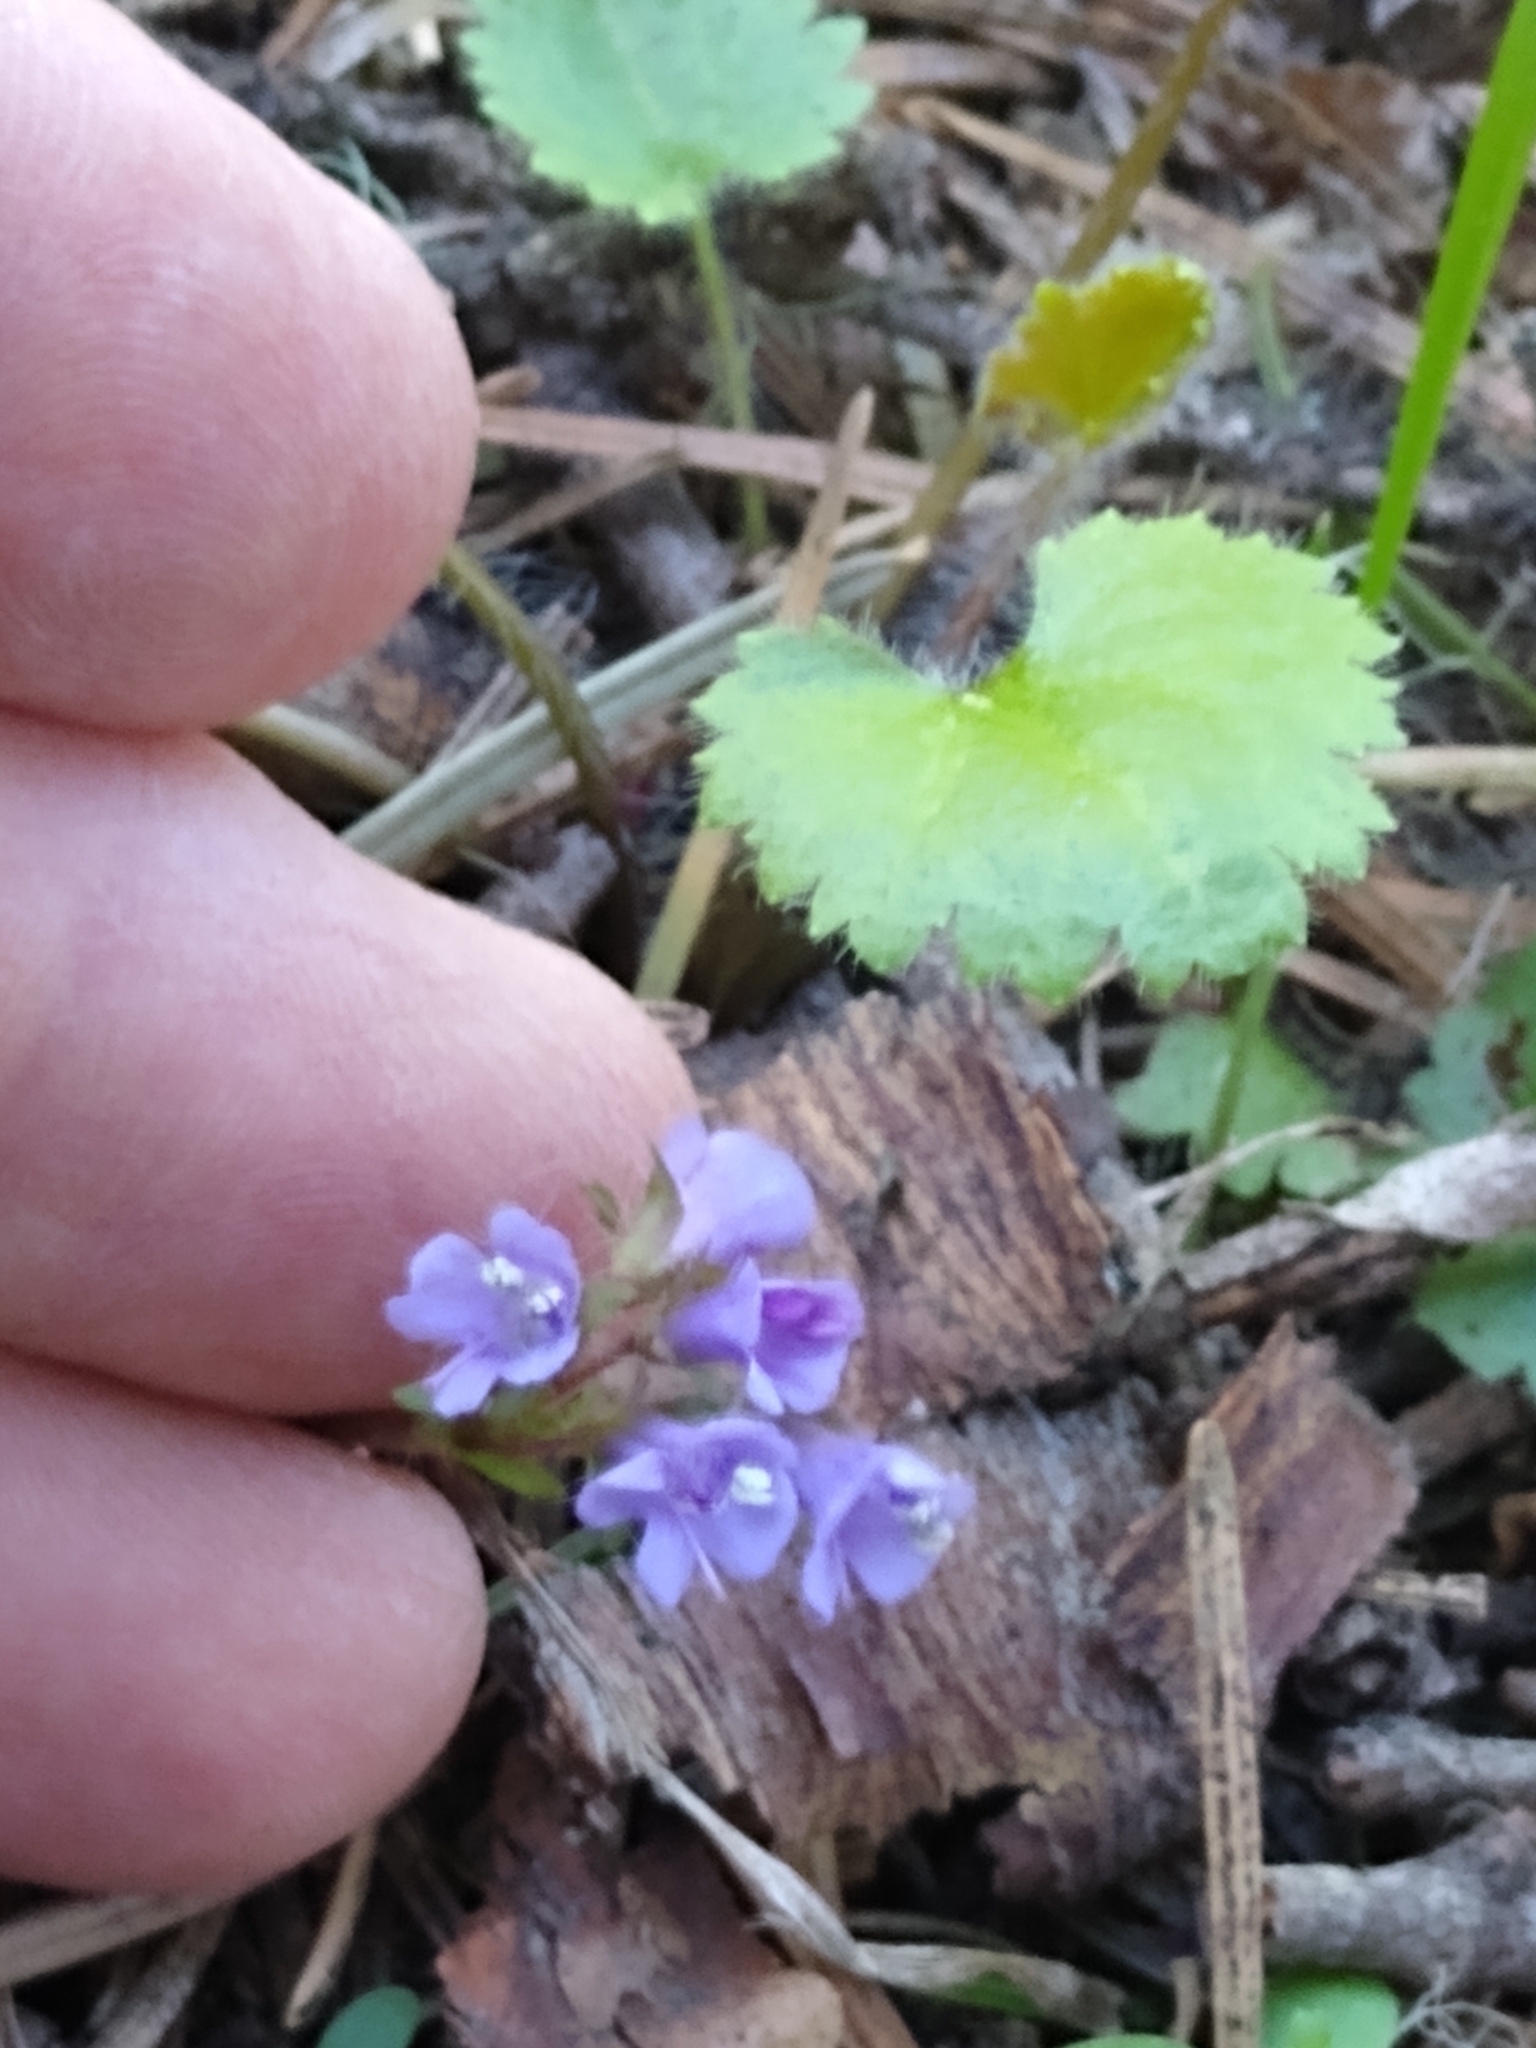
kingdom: Plantae
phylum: Tracheophyta
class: Magnoliopsida
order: Lamiales
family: Plantaginaceae
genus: Synthyris
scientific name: Synthyris reniformis
